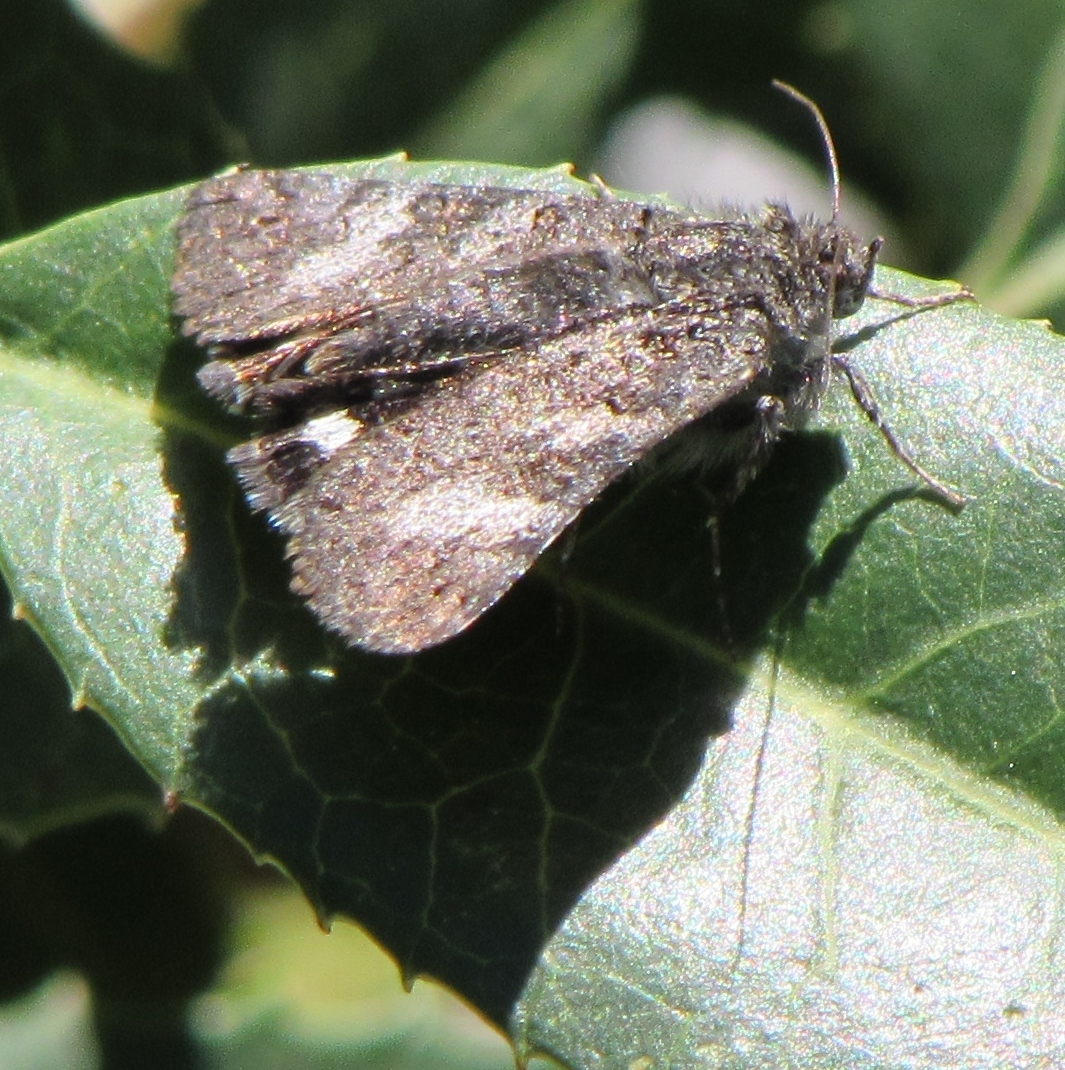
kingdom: Animalia
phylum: Arthropoda
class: Insecta
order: Lepidoptera
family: Erebidae
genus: Litocala
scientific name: Litocala sexsignata
